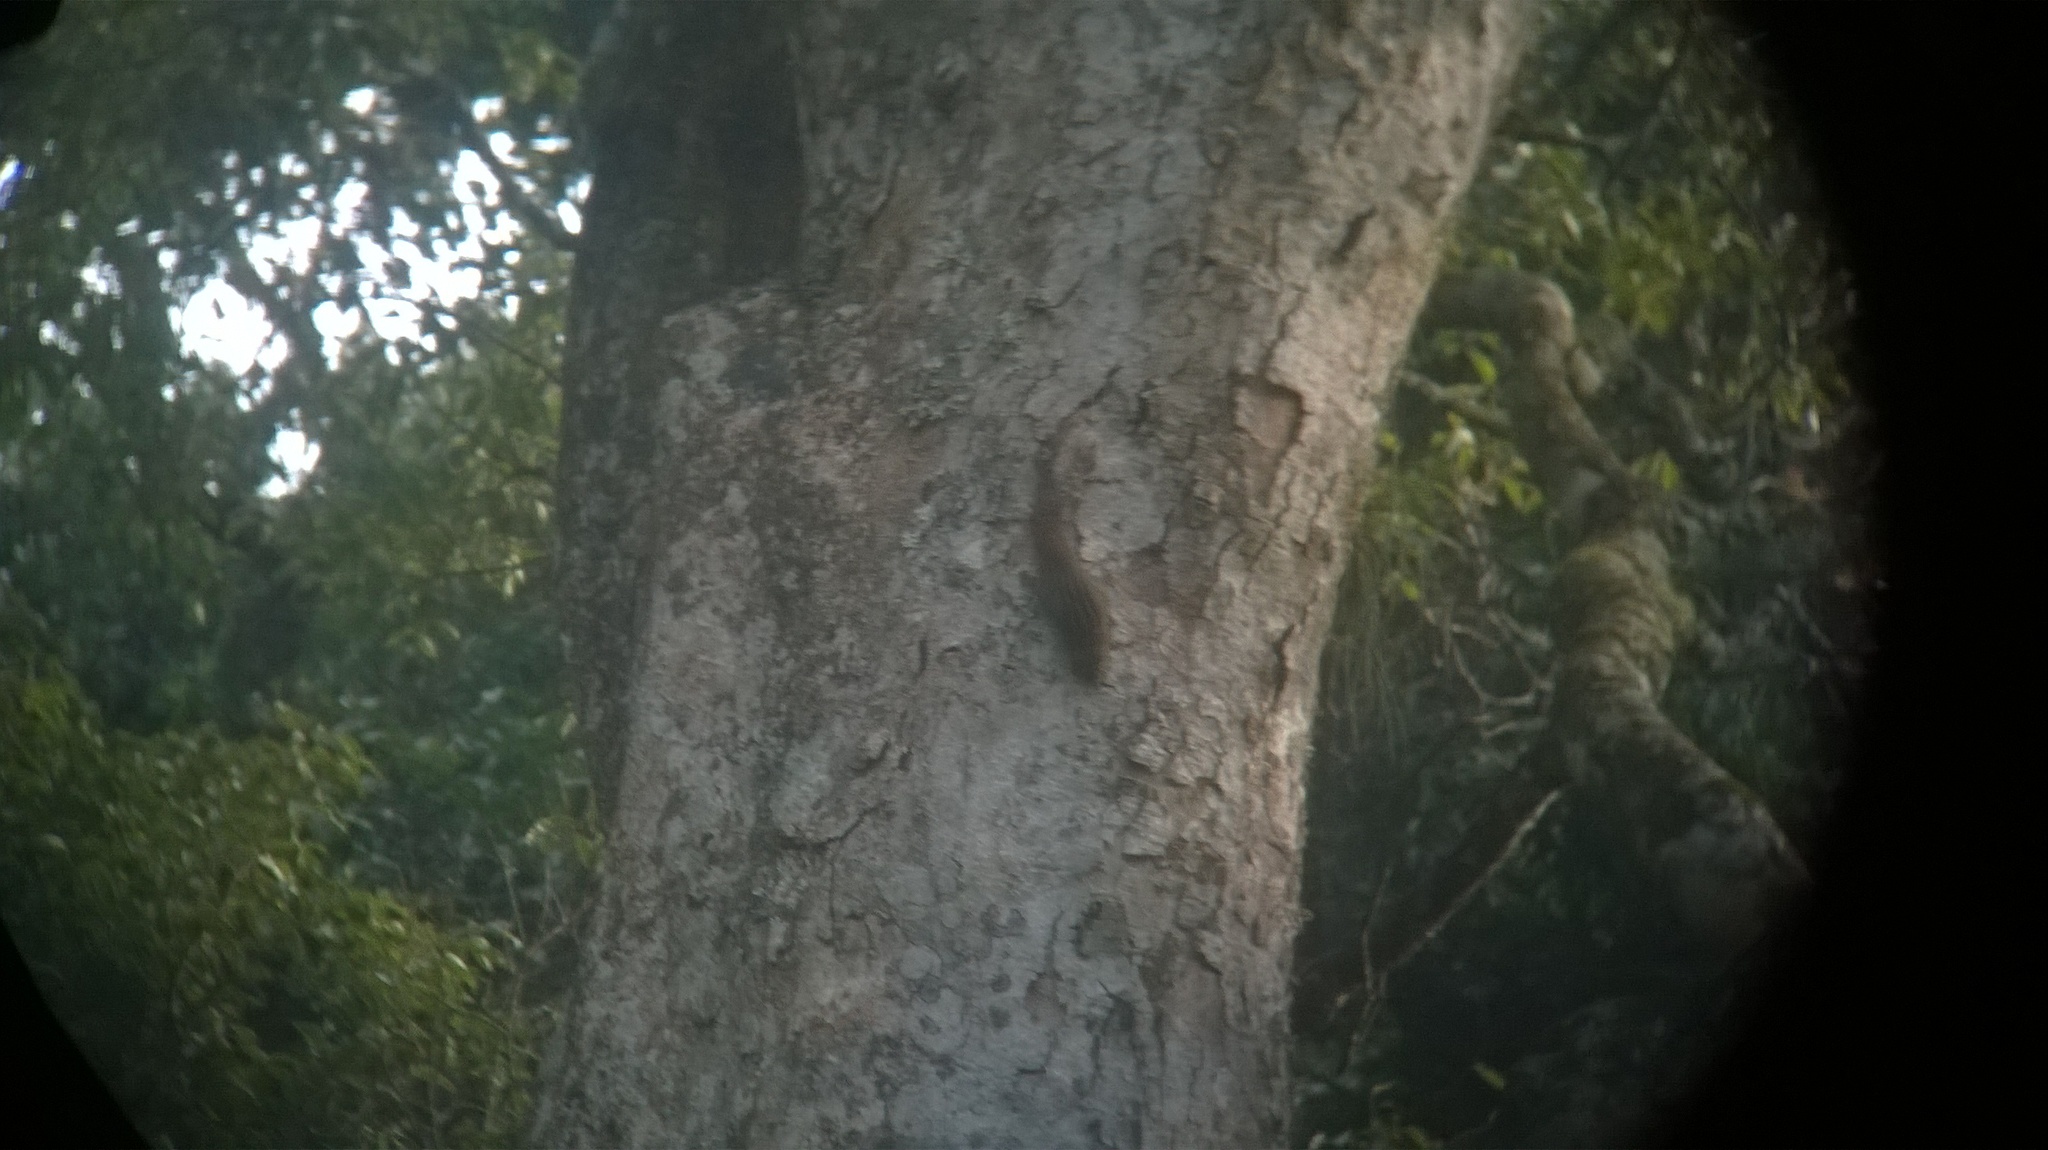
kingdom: Animalia
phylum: Chordata
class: Mammalia
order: Rodentia
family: Sciuridae
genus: Funambulus
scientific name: Funambulus sublineatus
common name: Dusky palm squirrel
